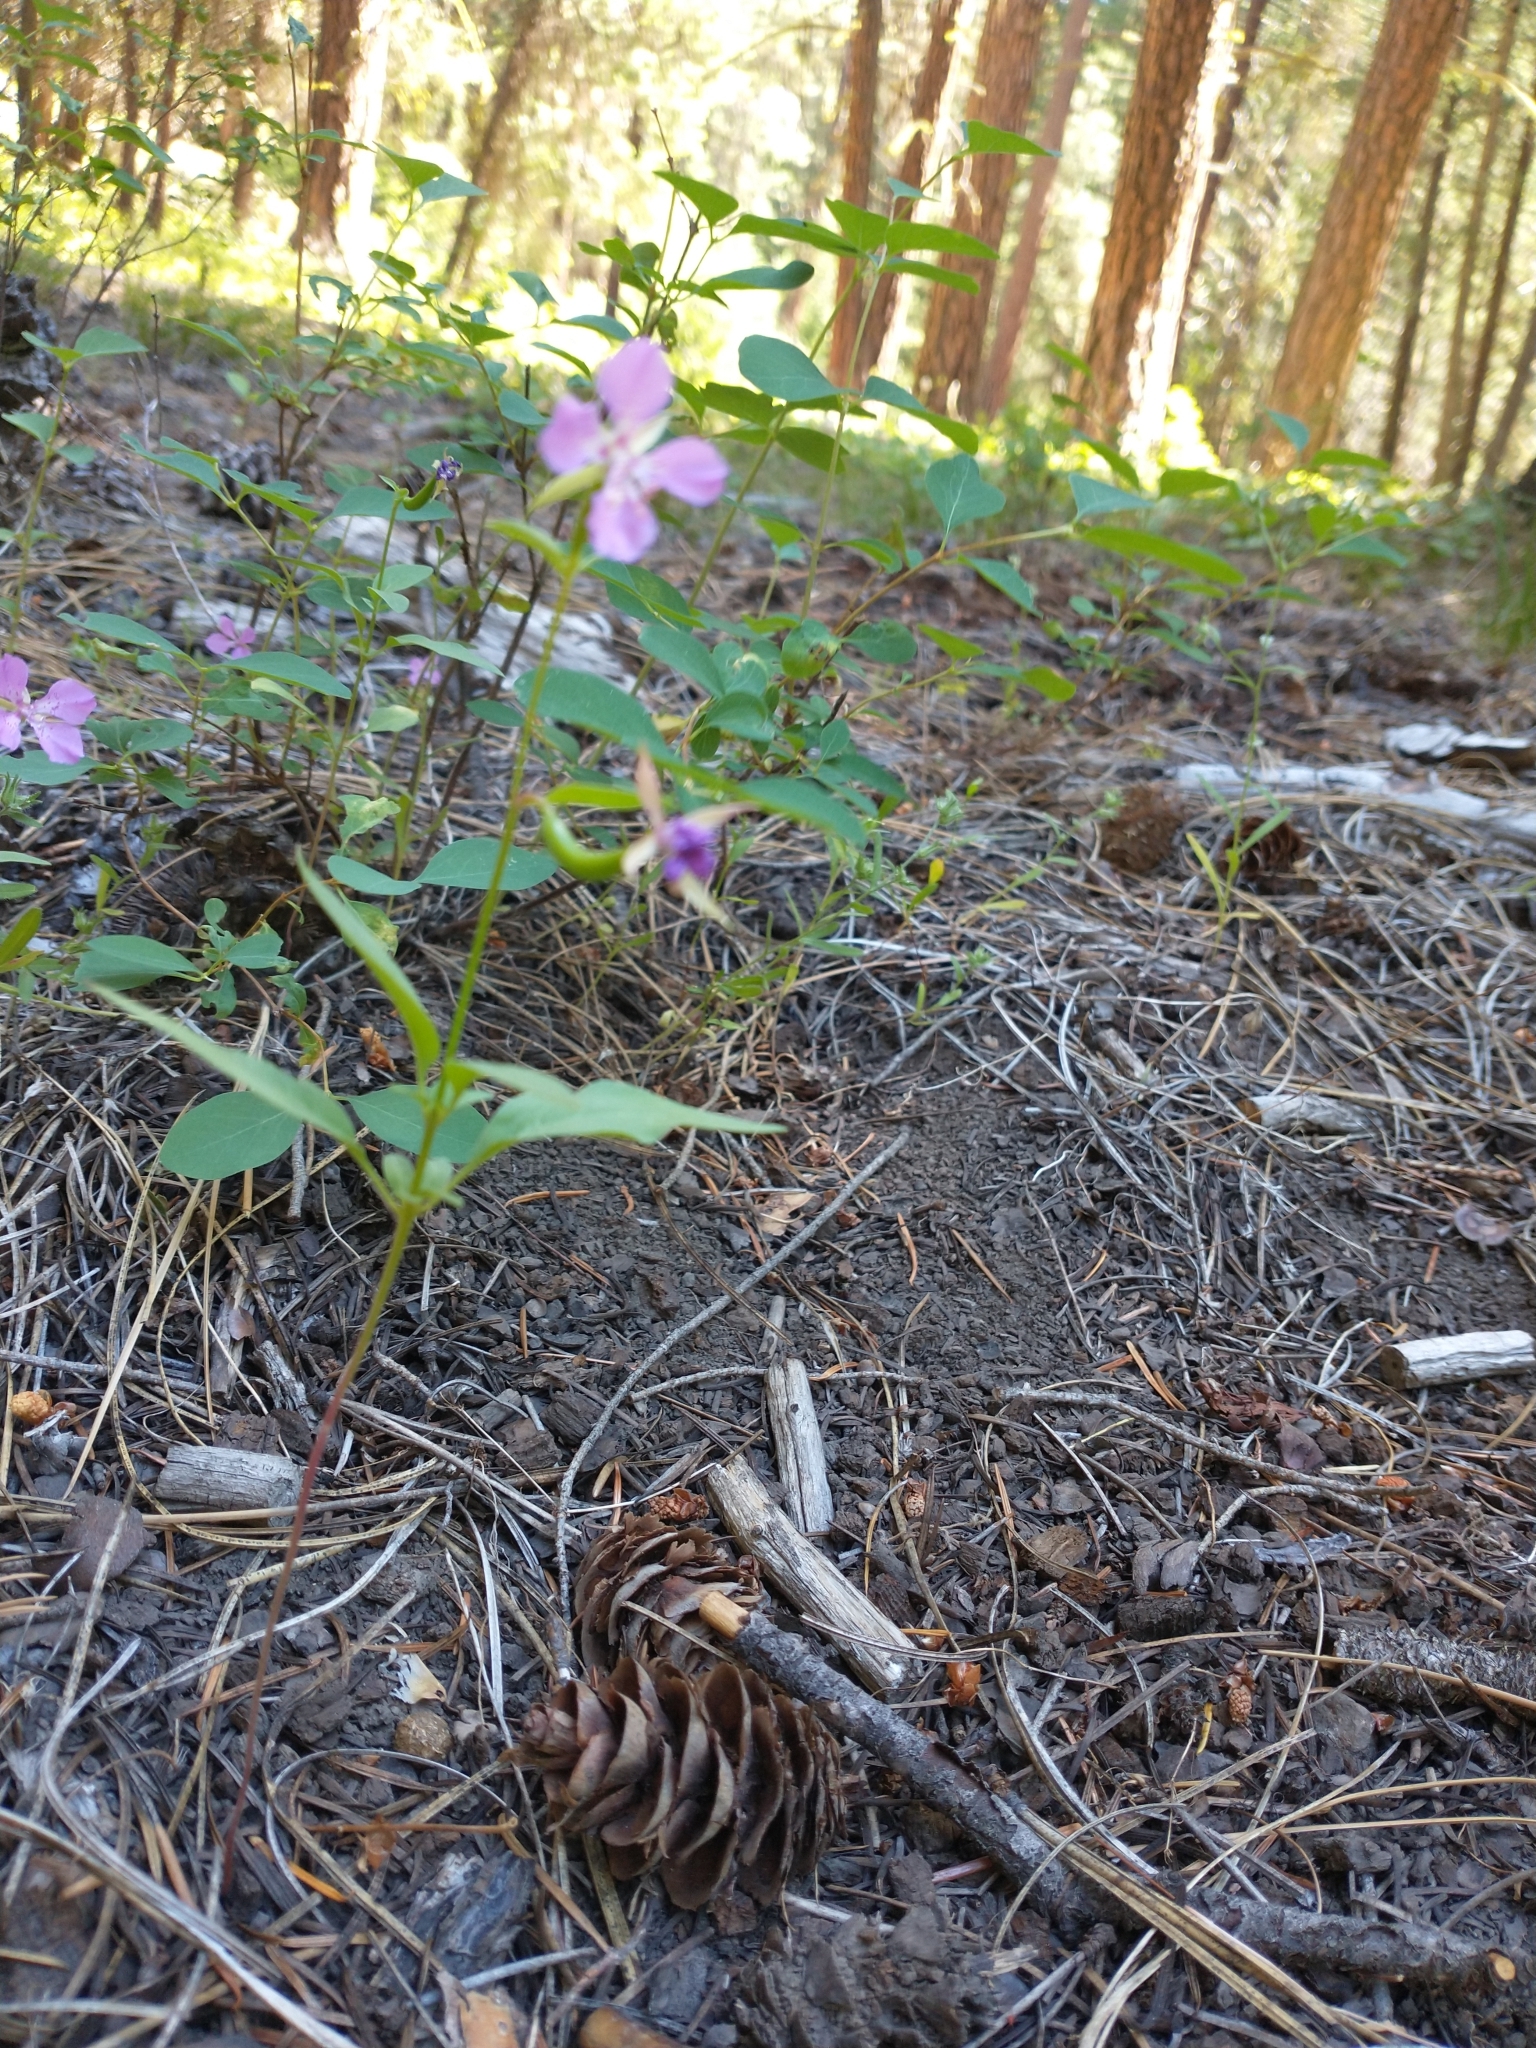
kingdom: Plantae
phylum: Tracheophyta
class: Magnoliopsida
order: Myrtales
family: Onagraceae
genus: Clarkia
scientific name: Clarkia rhomboidea
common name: Broadleaf clarkia
